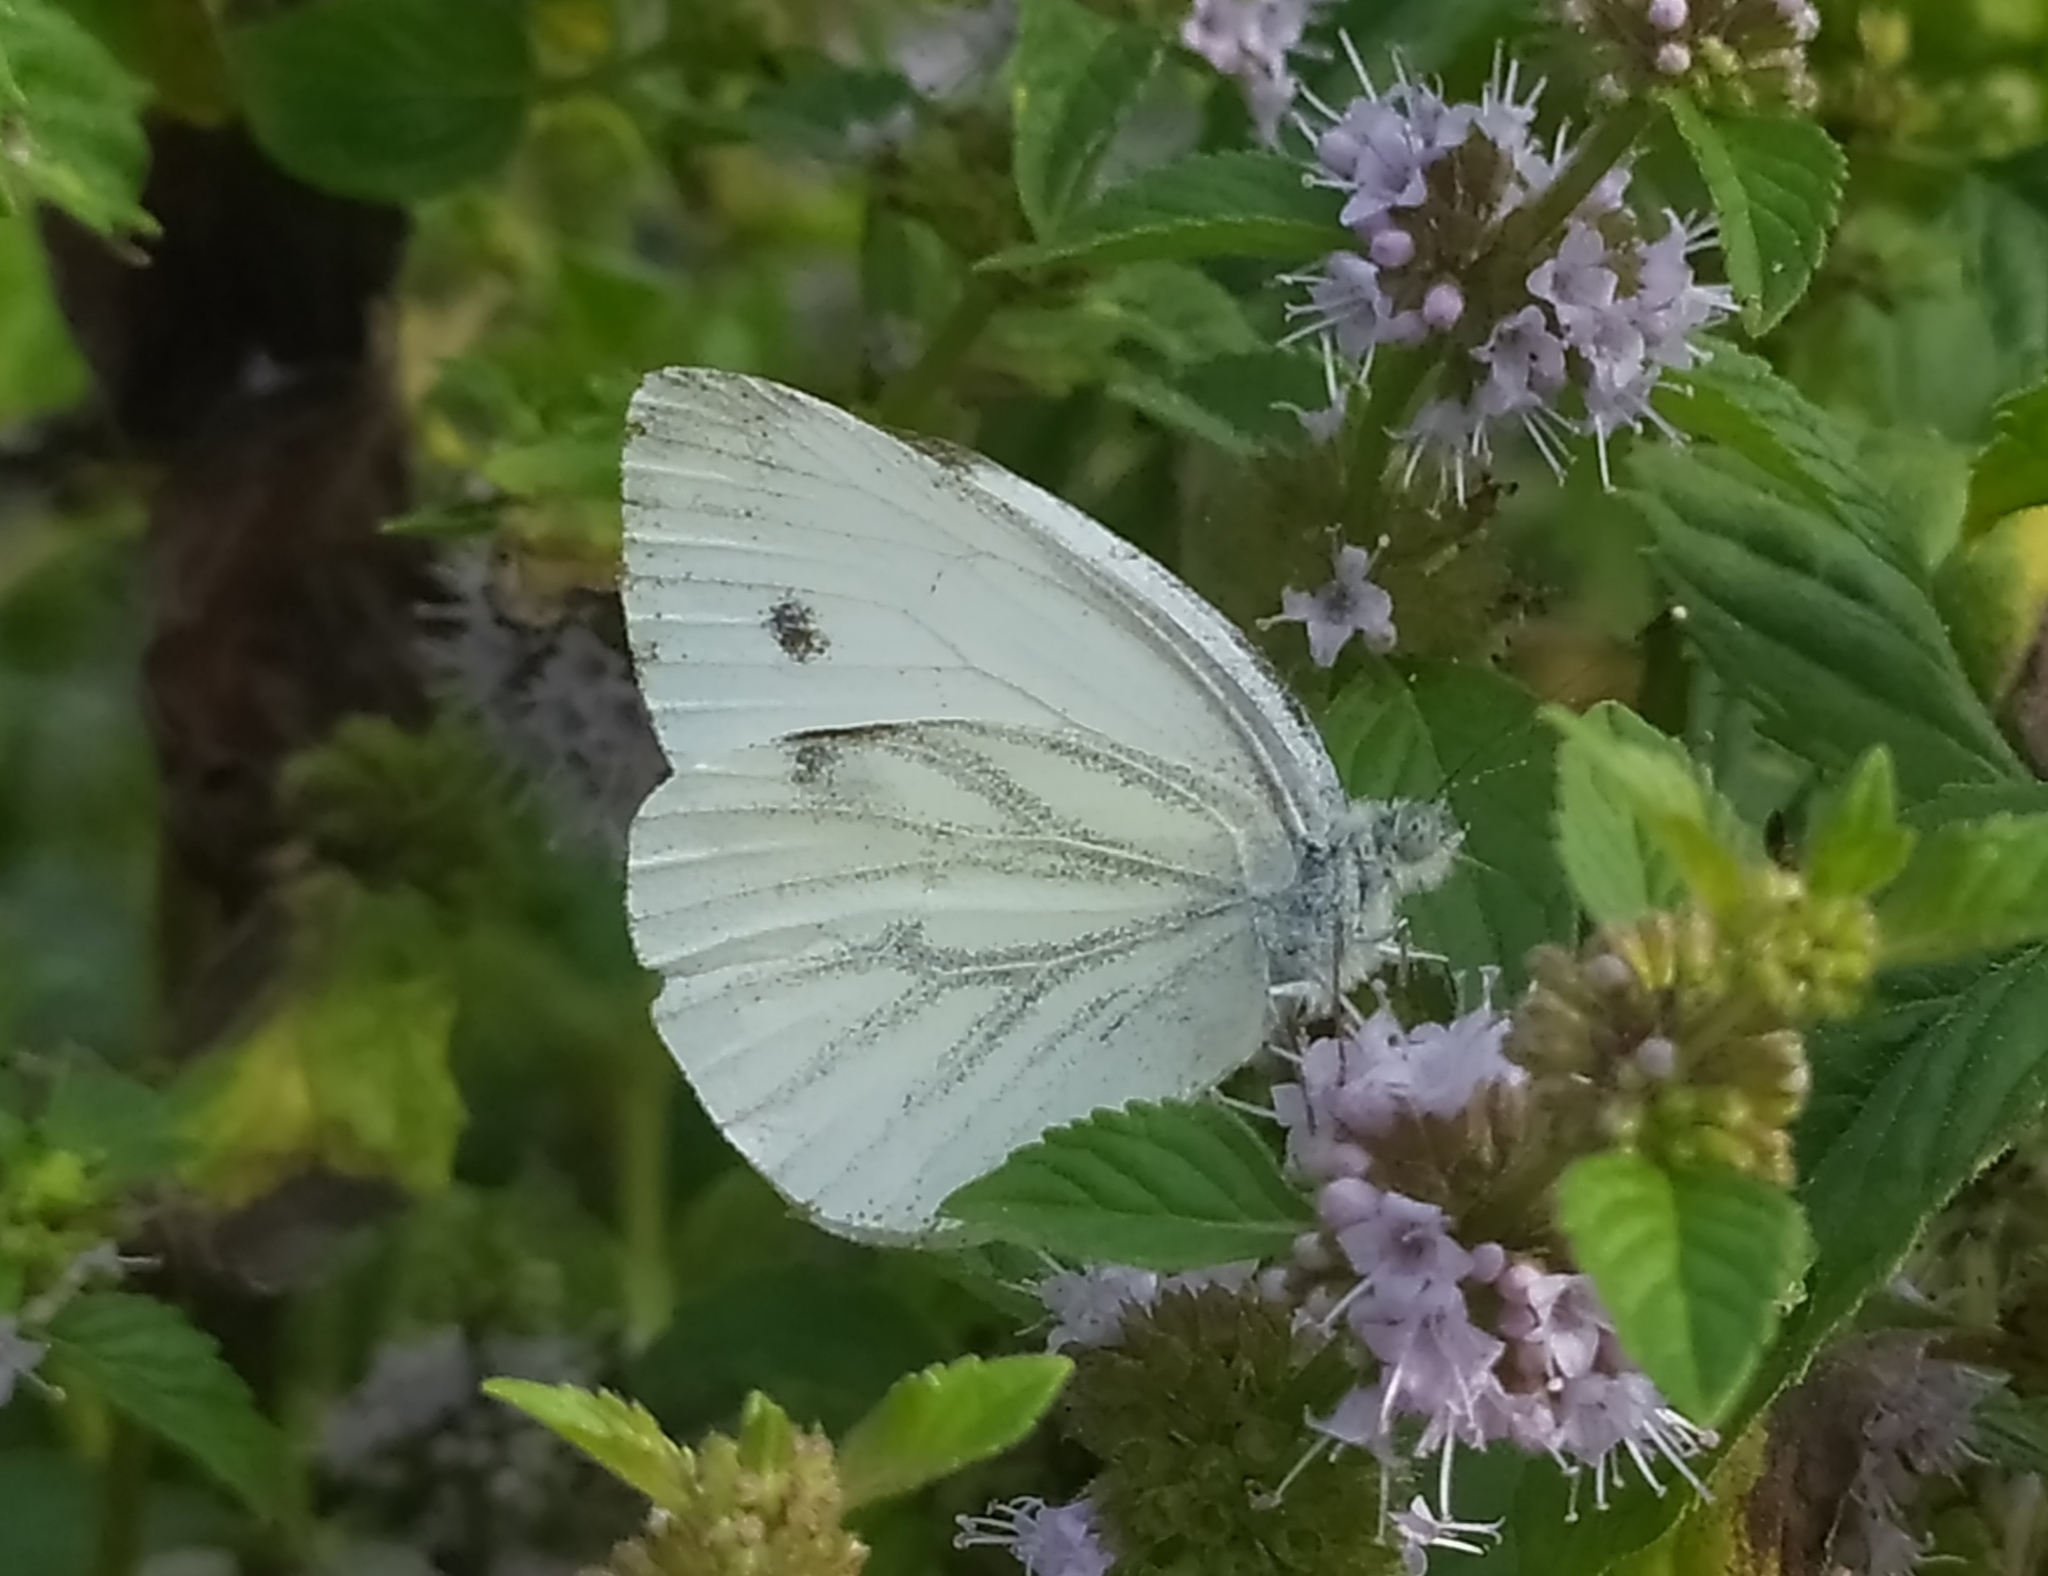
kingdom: Animalia
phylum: Arthropoda
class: Insecta
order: Lepidoptera
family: Pieridae
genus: Pieris
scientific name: Pieris napi
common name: Green-veined white
